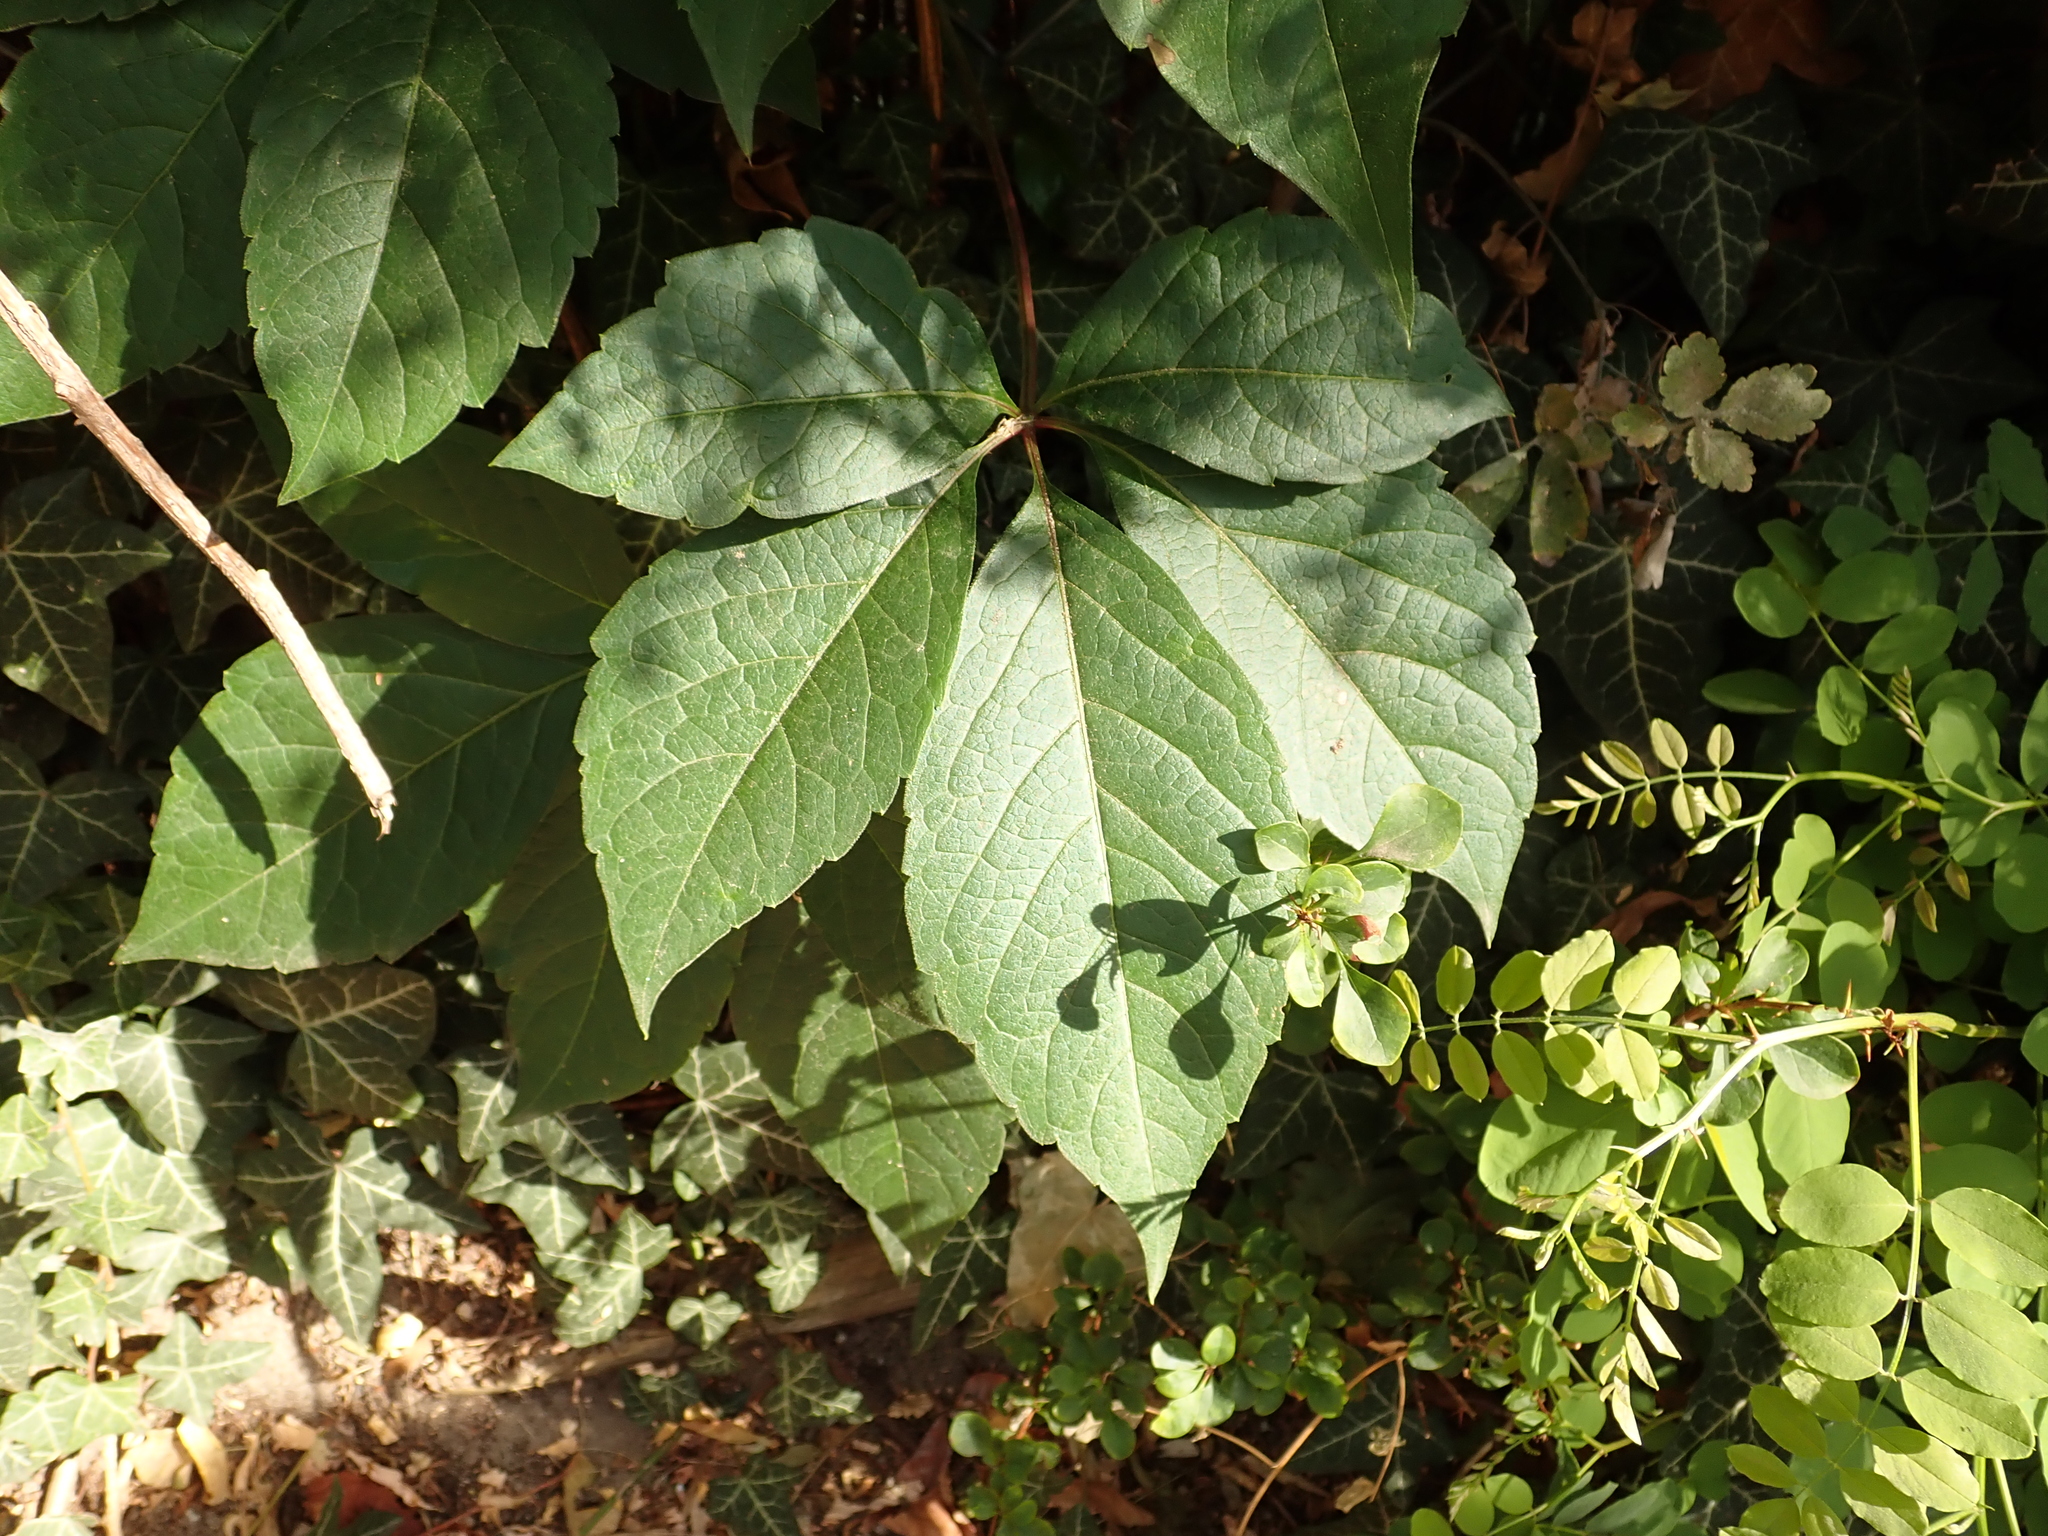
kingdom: Plantae
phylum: Tracheophyta
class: Magnoliopsida
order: Vitales
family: Vitaceae
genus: Parthenocissus
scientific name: Parthenocissus quinquefolia
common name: Virginia-creeper
